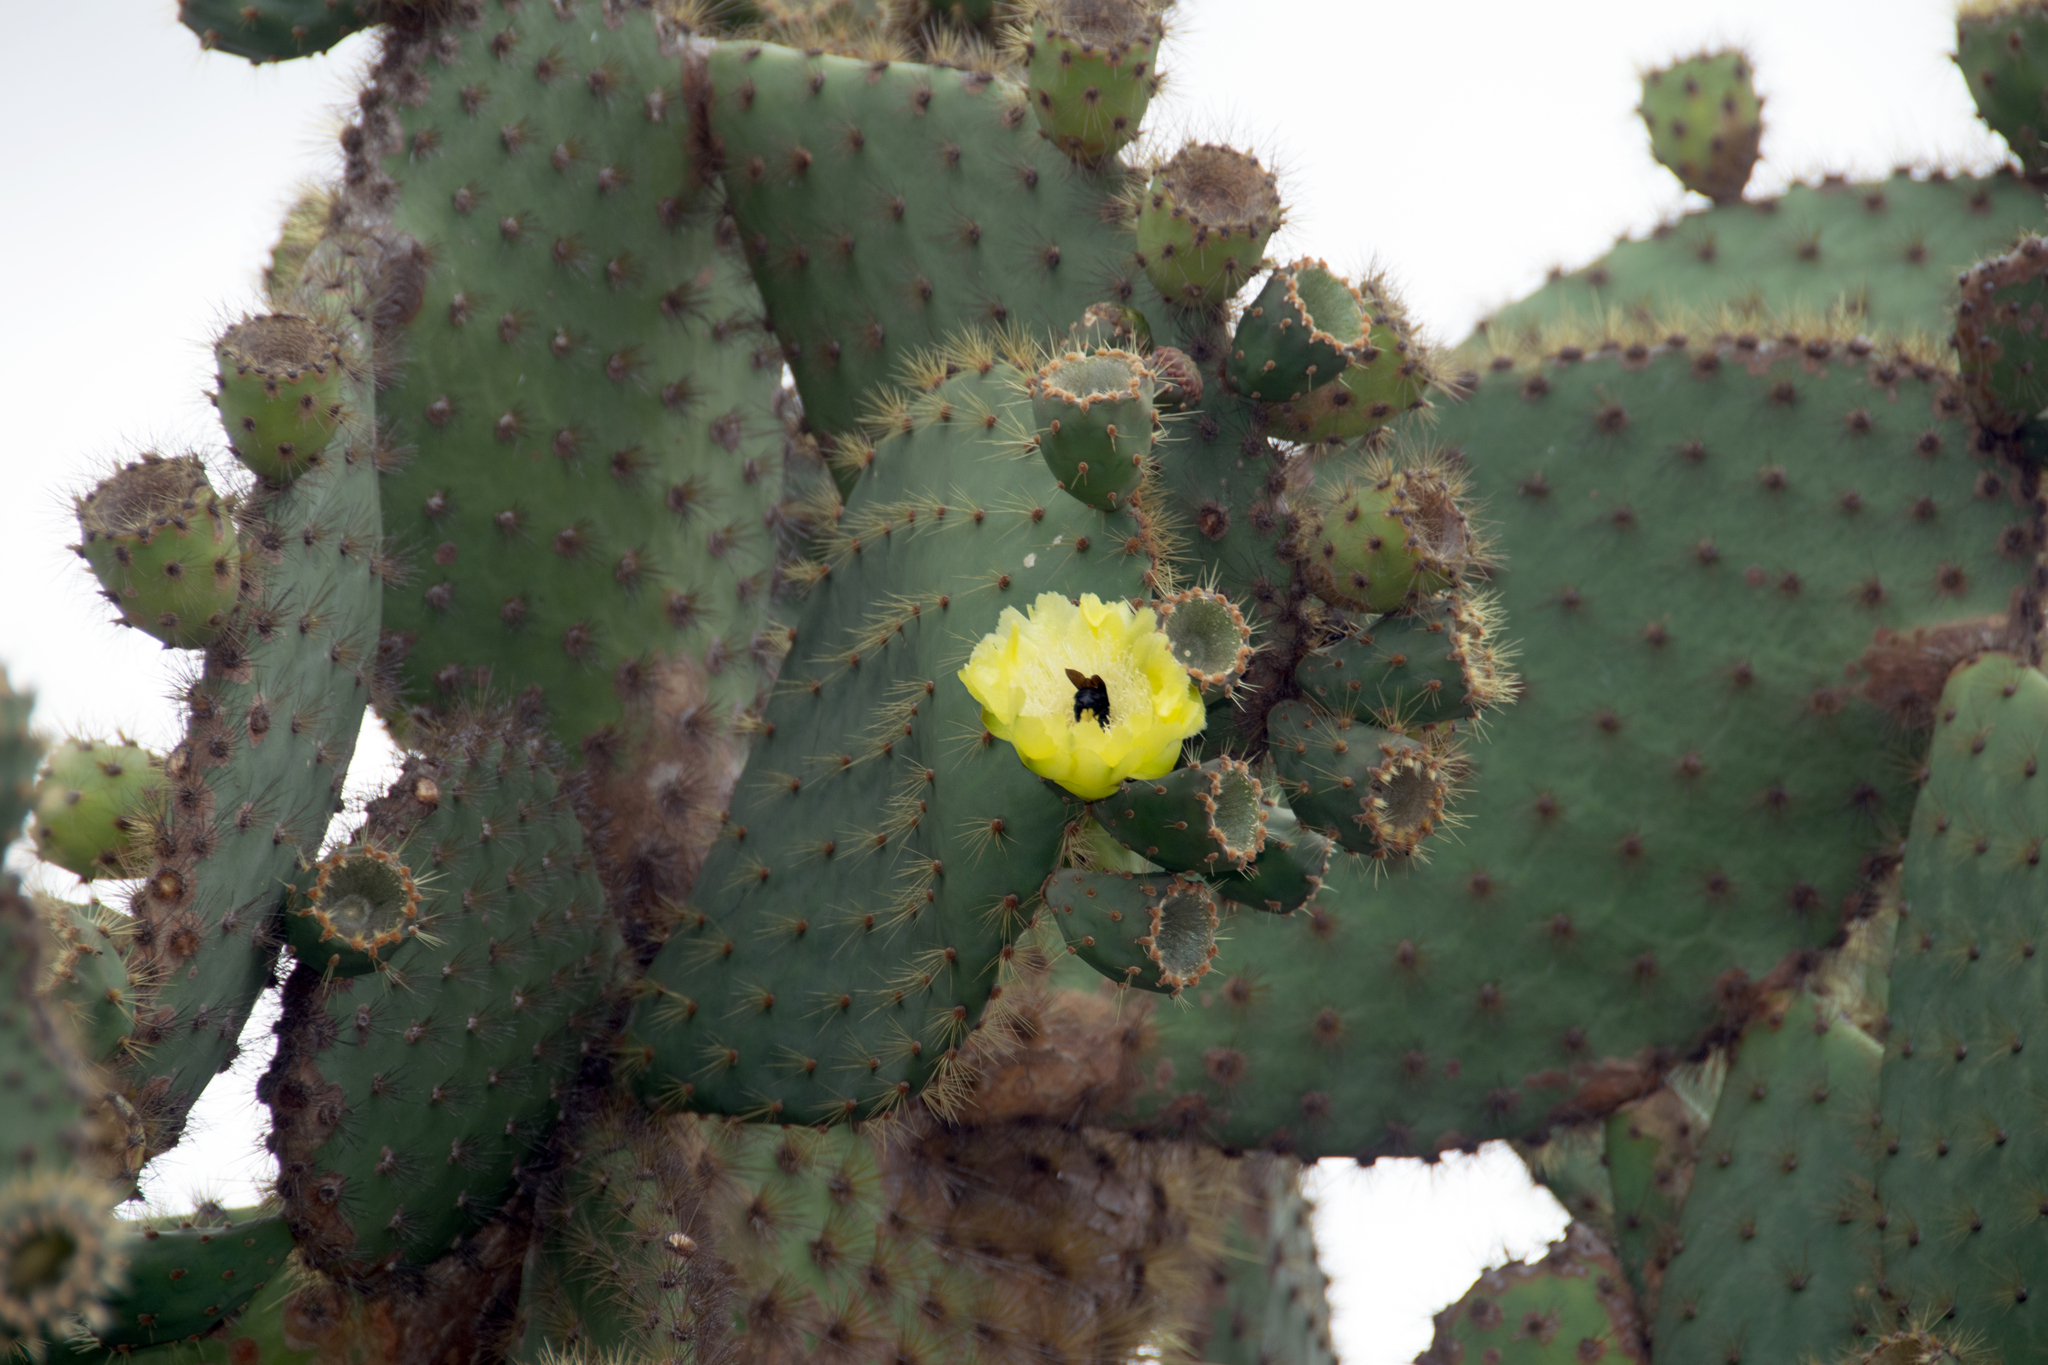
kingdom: Plantae
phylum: Tracheophyta
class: Magnoliopsida
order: Caryophyllales
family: Cactaceae
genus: Opuntia
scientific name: Opuntia galapageia
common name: Galápagos prickly pear
